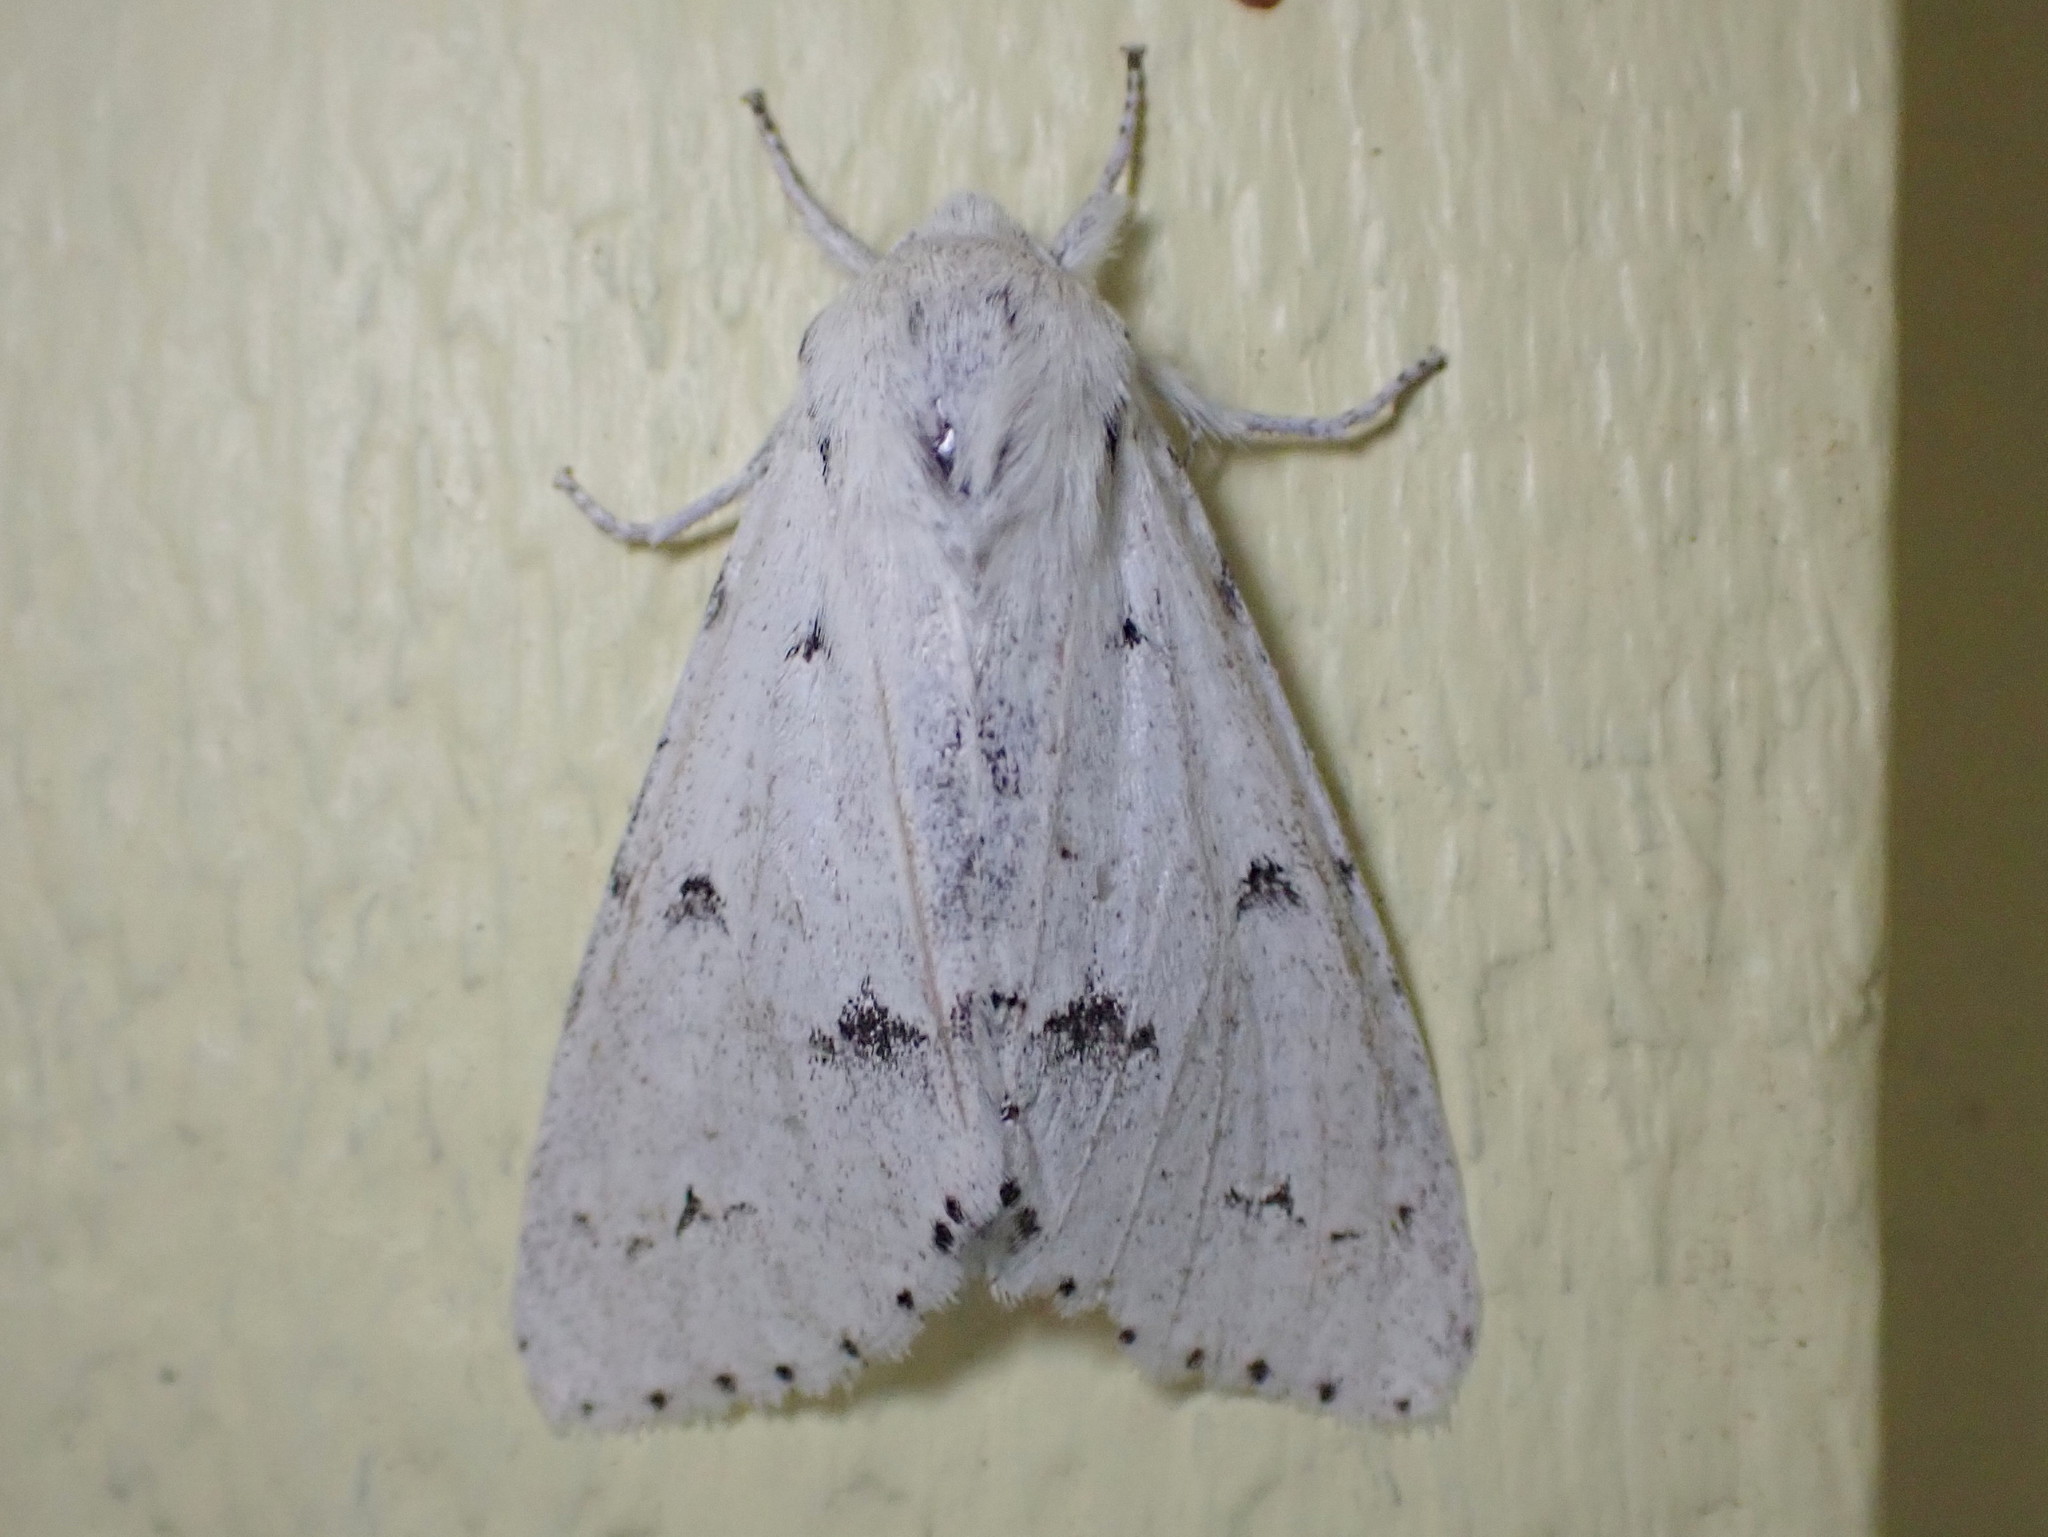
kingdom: Animalia
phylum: Arthropoda
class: Insecta
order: Lepidoptera
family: Noctuidae
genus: Acronicta
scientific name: Acronicta vulpina
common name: Miller dagger
